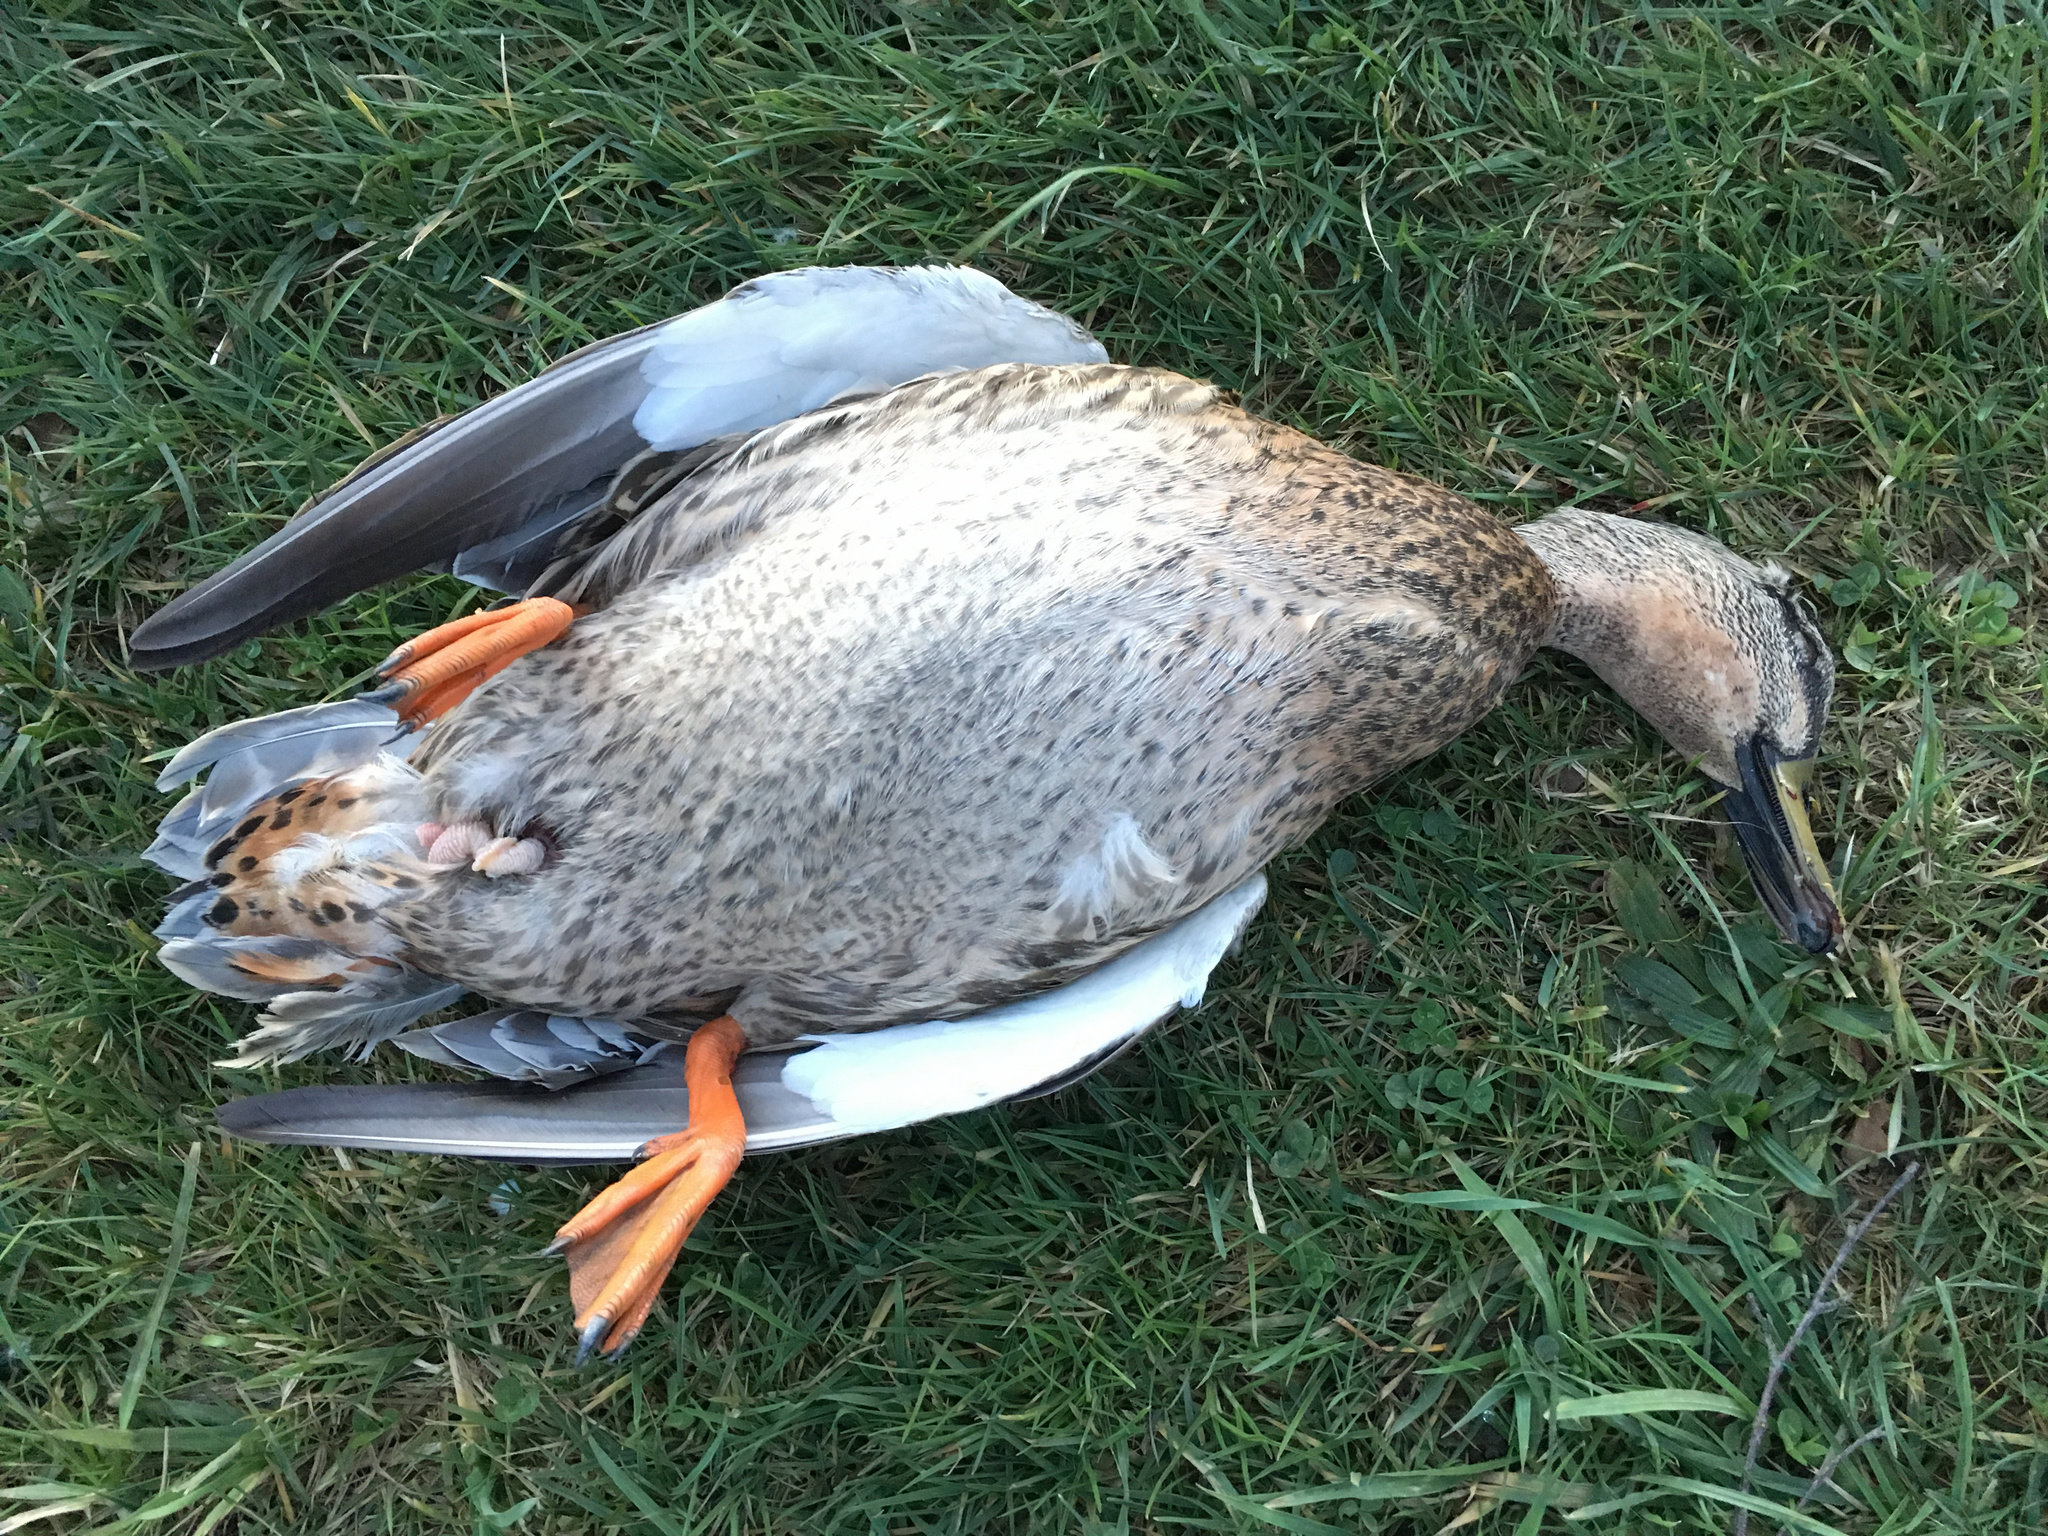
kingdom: Animalia
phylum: Chordata
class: Aves
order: Anseriformes
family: Anatidae
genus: Anas
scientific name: Anas
